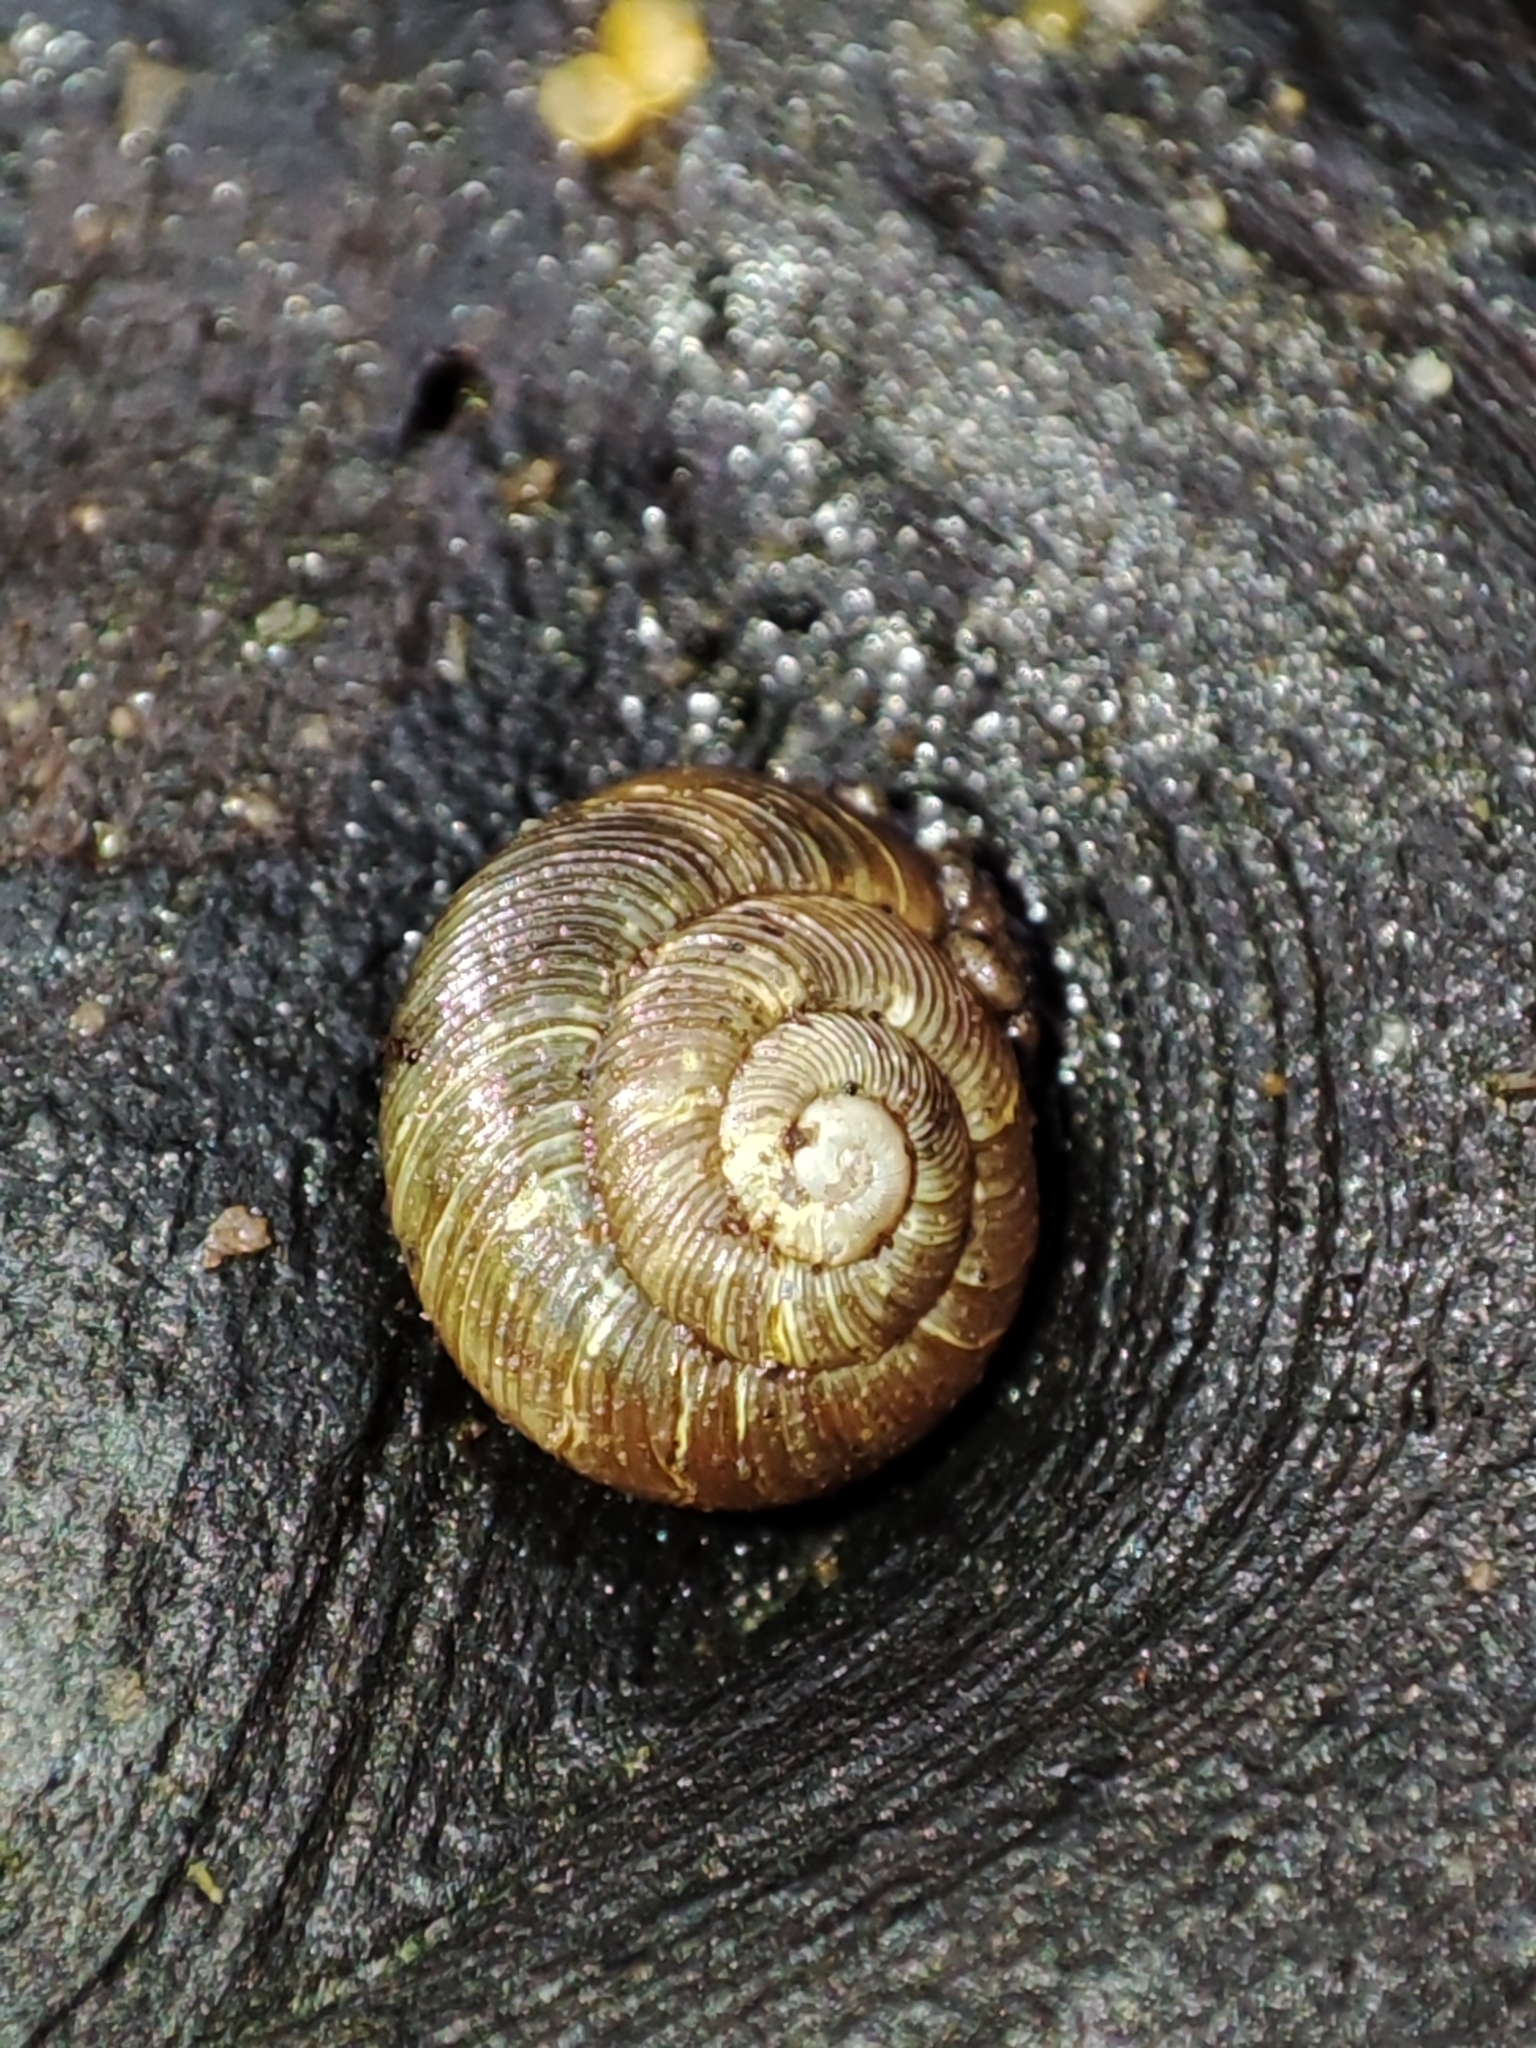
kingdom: Animalia
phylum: Mollusca
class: Gastropoda
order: Stylommatophora
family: Discidae
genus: Discus
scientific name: Discus ruderatus
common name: Brown disc snail
